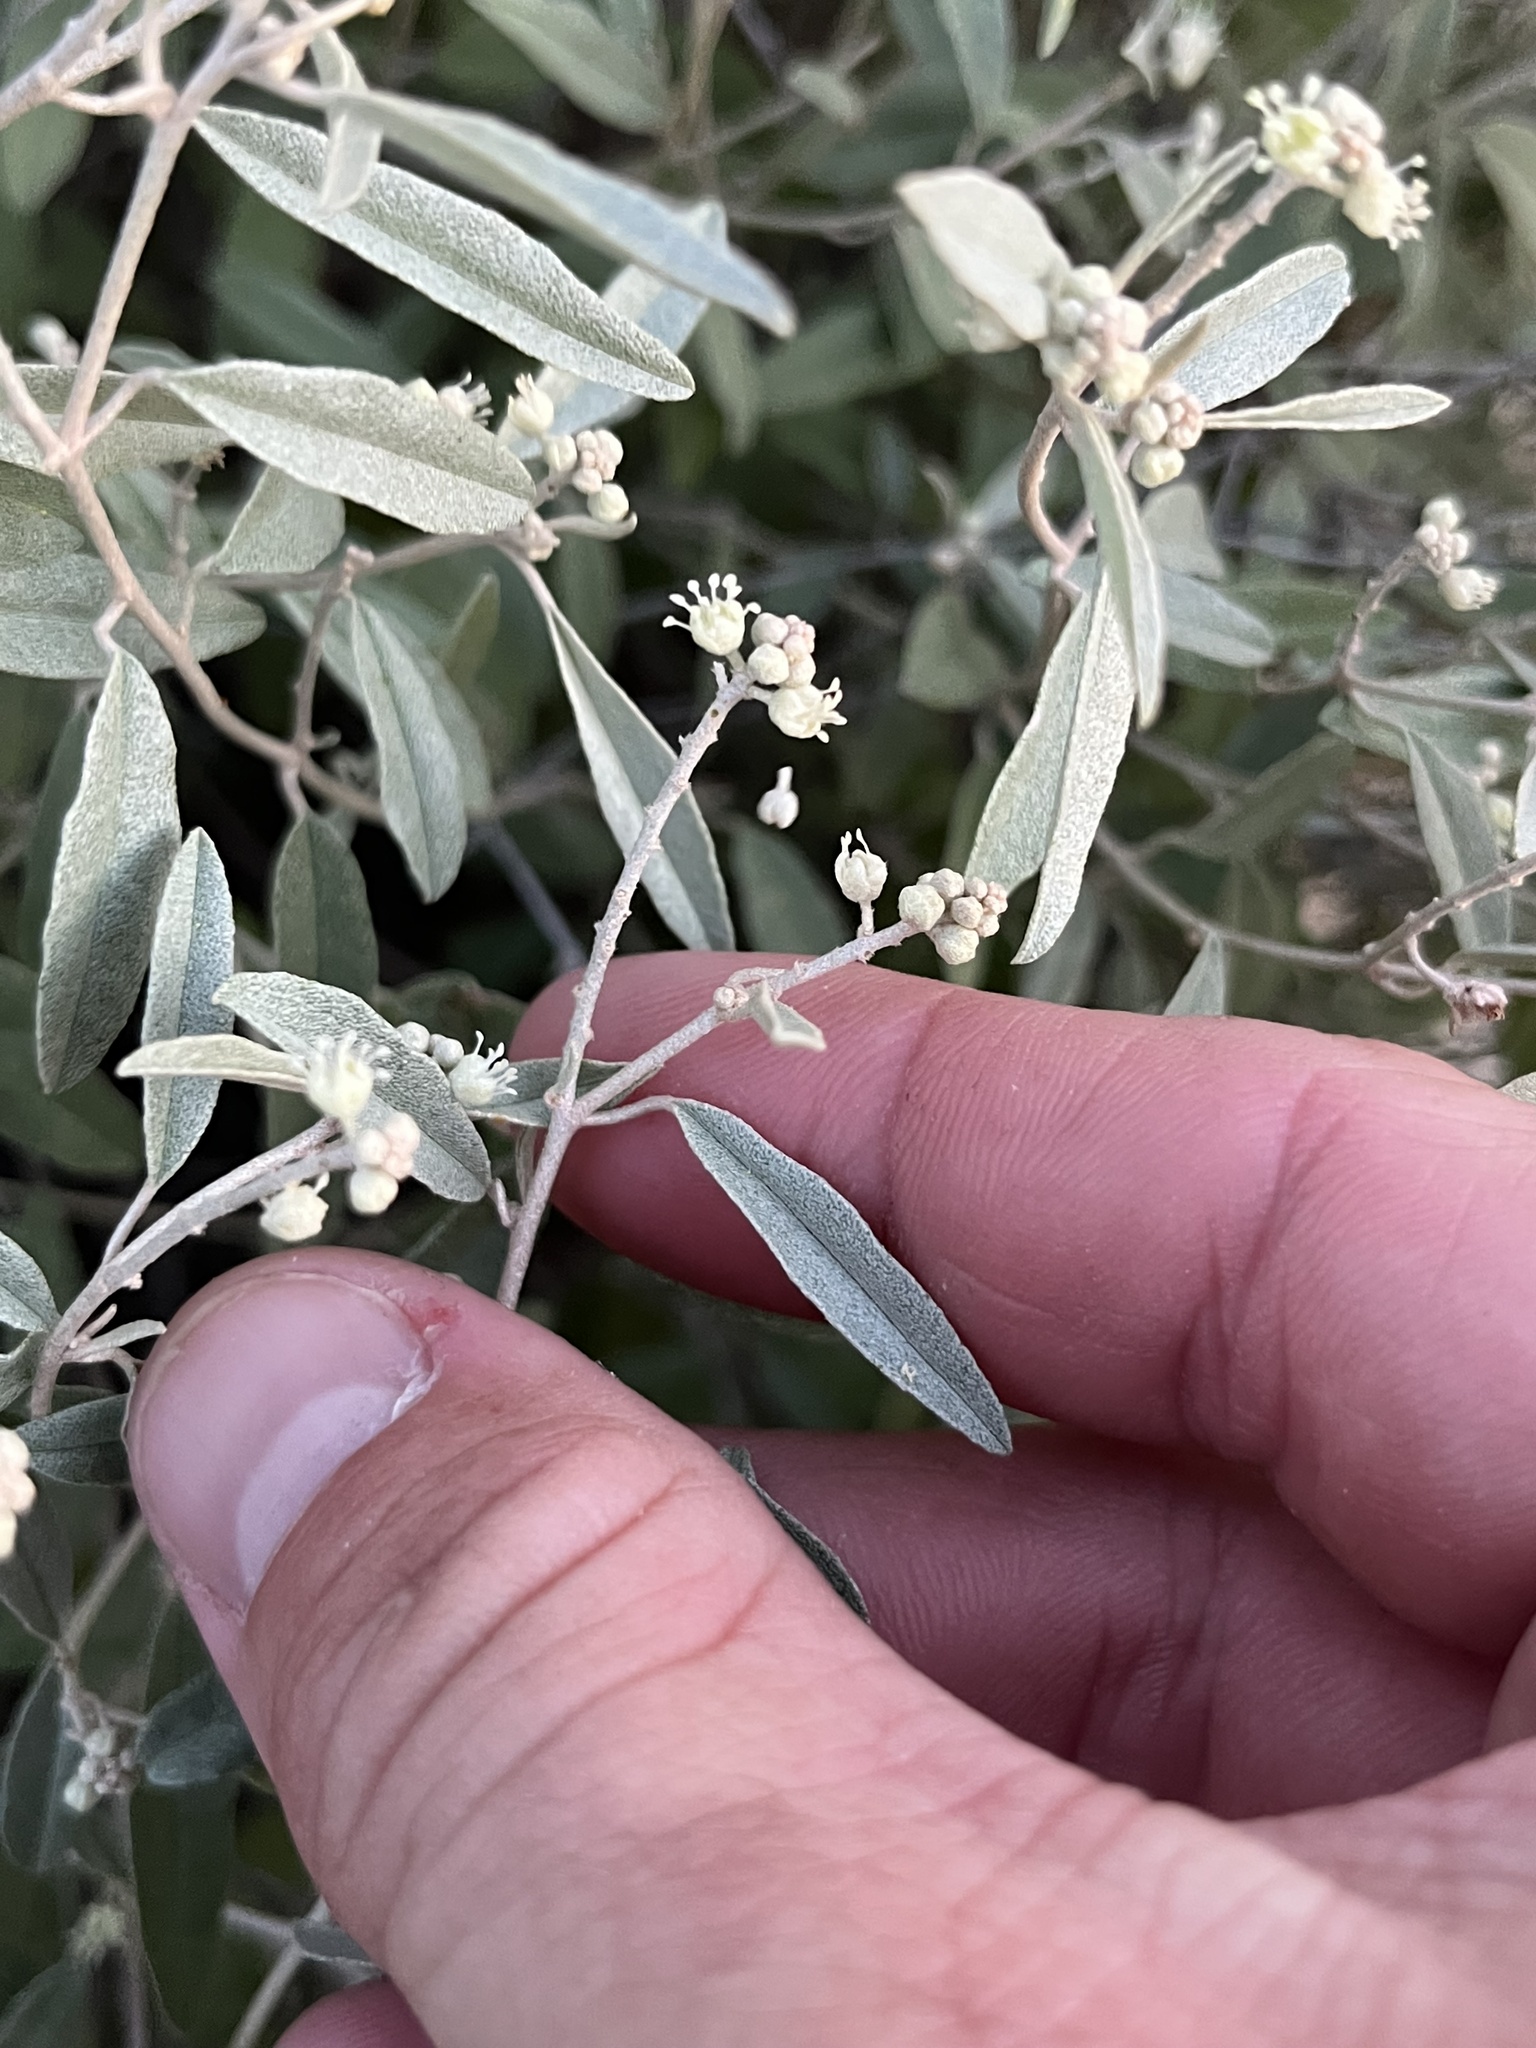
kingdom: Plantae
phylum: Tracheophyta
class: Magnoliopsida
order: Malpighiales
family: Euphorbiaceae
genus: Croton
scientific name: Croton dioicus
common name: Grassland croton
